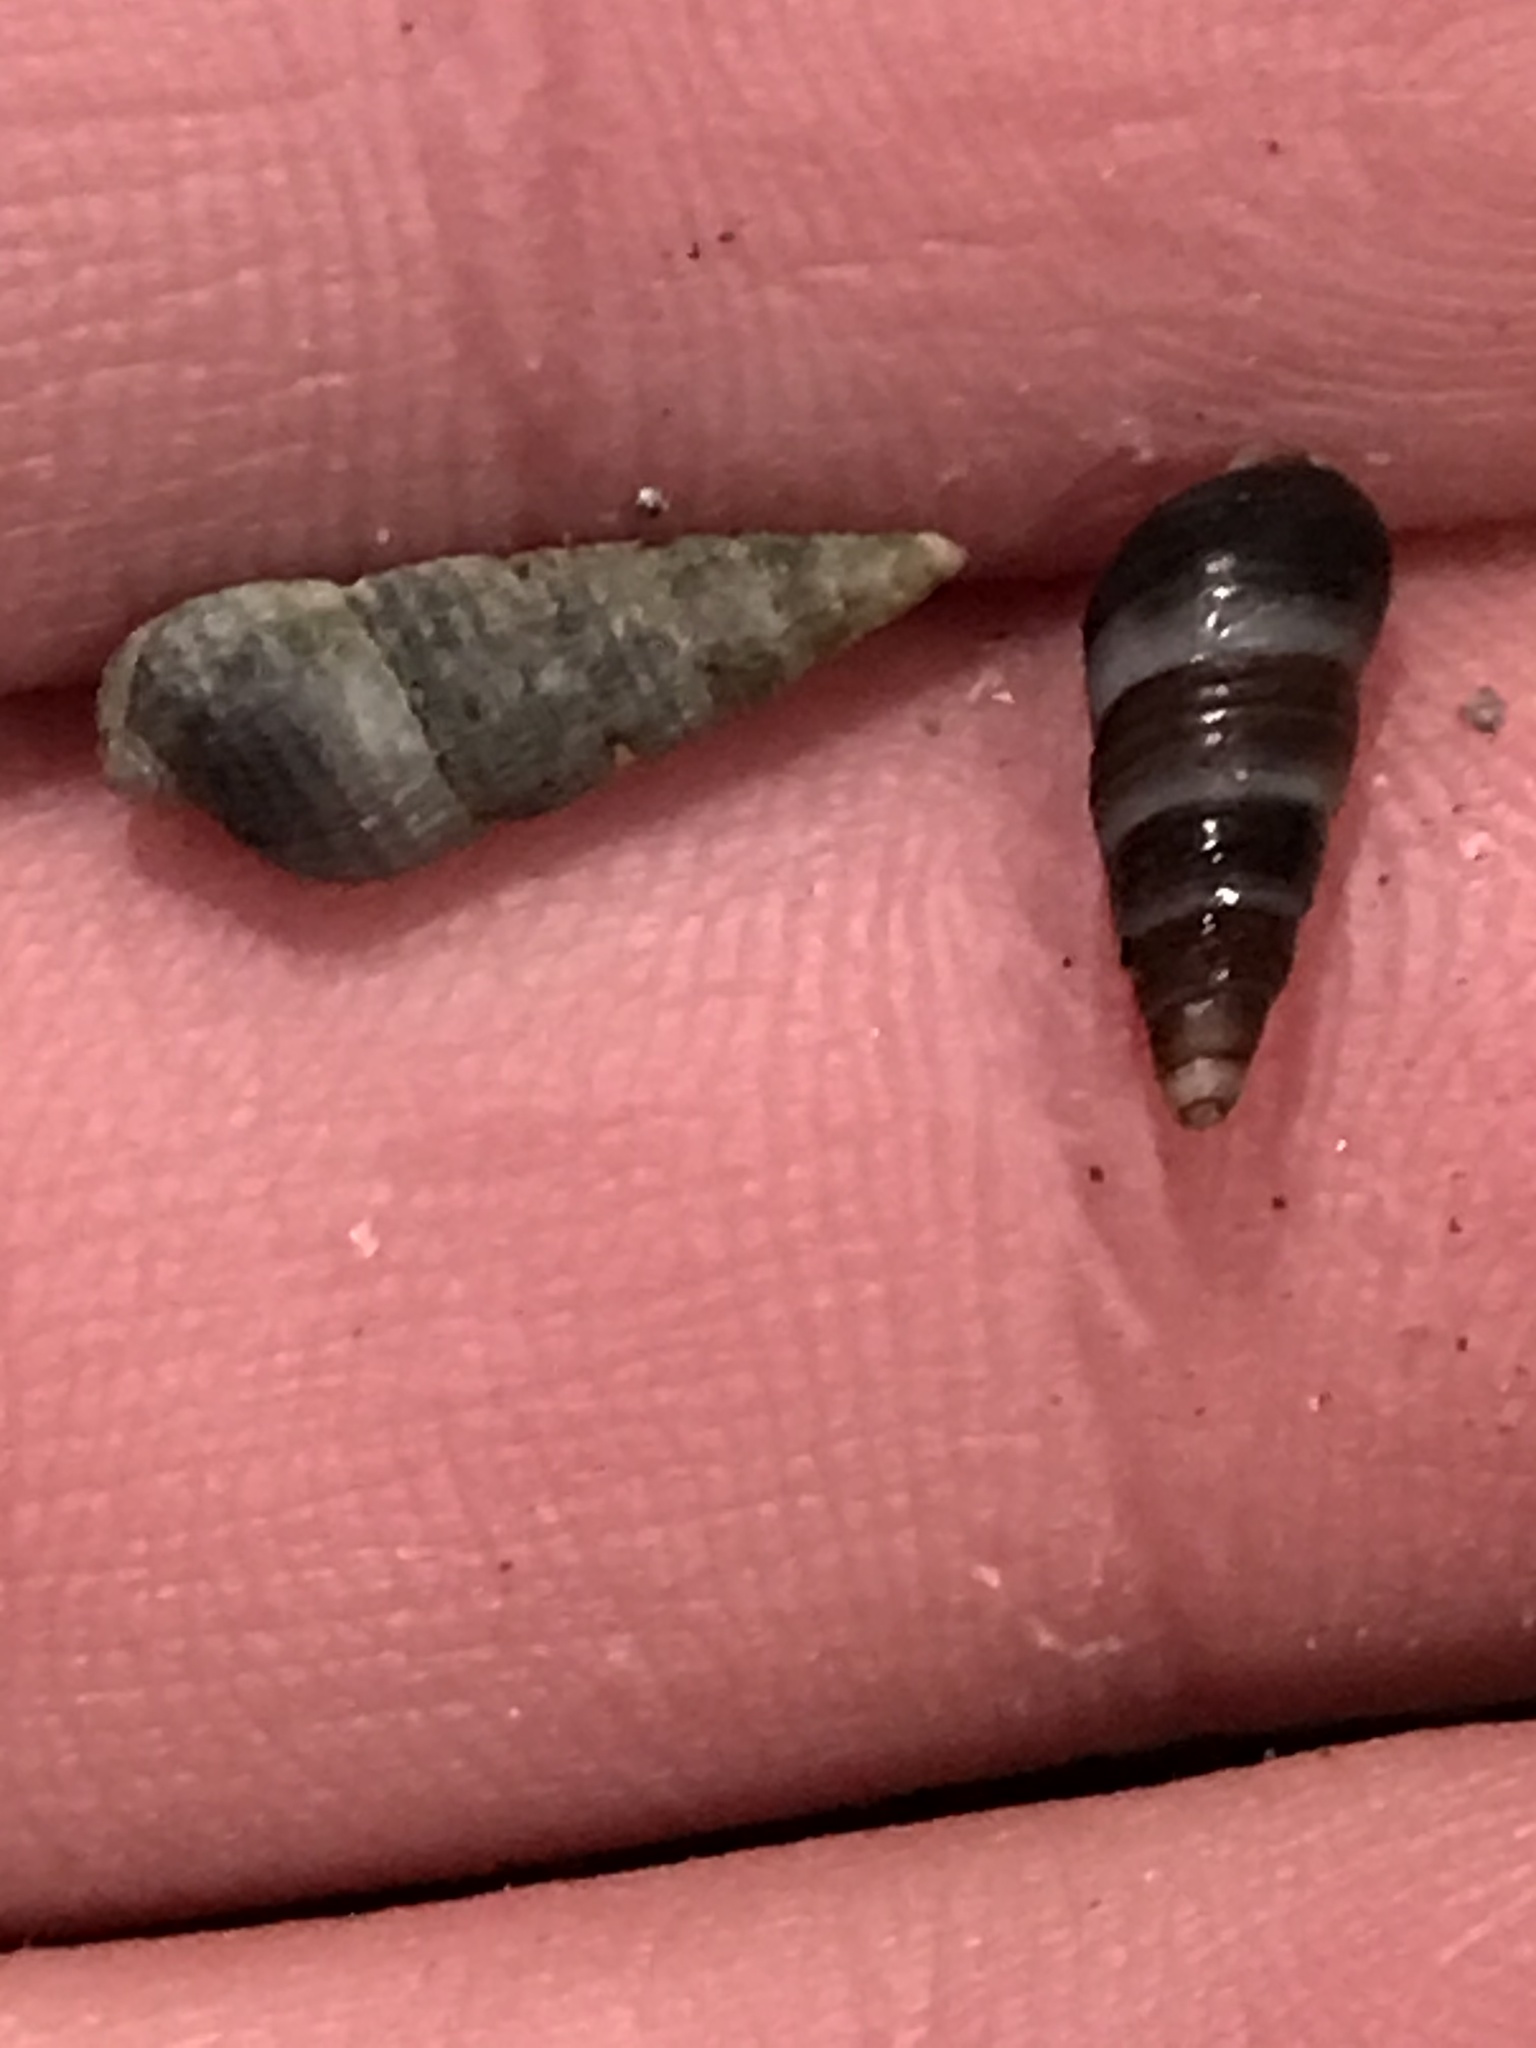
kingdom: Animalia
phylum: Mollusca
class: Gastropoda
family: Cerithiidae
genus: Neostylidium
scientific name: Neostylidium eschrichtii
